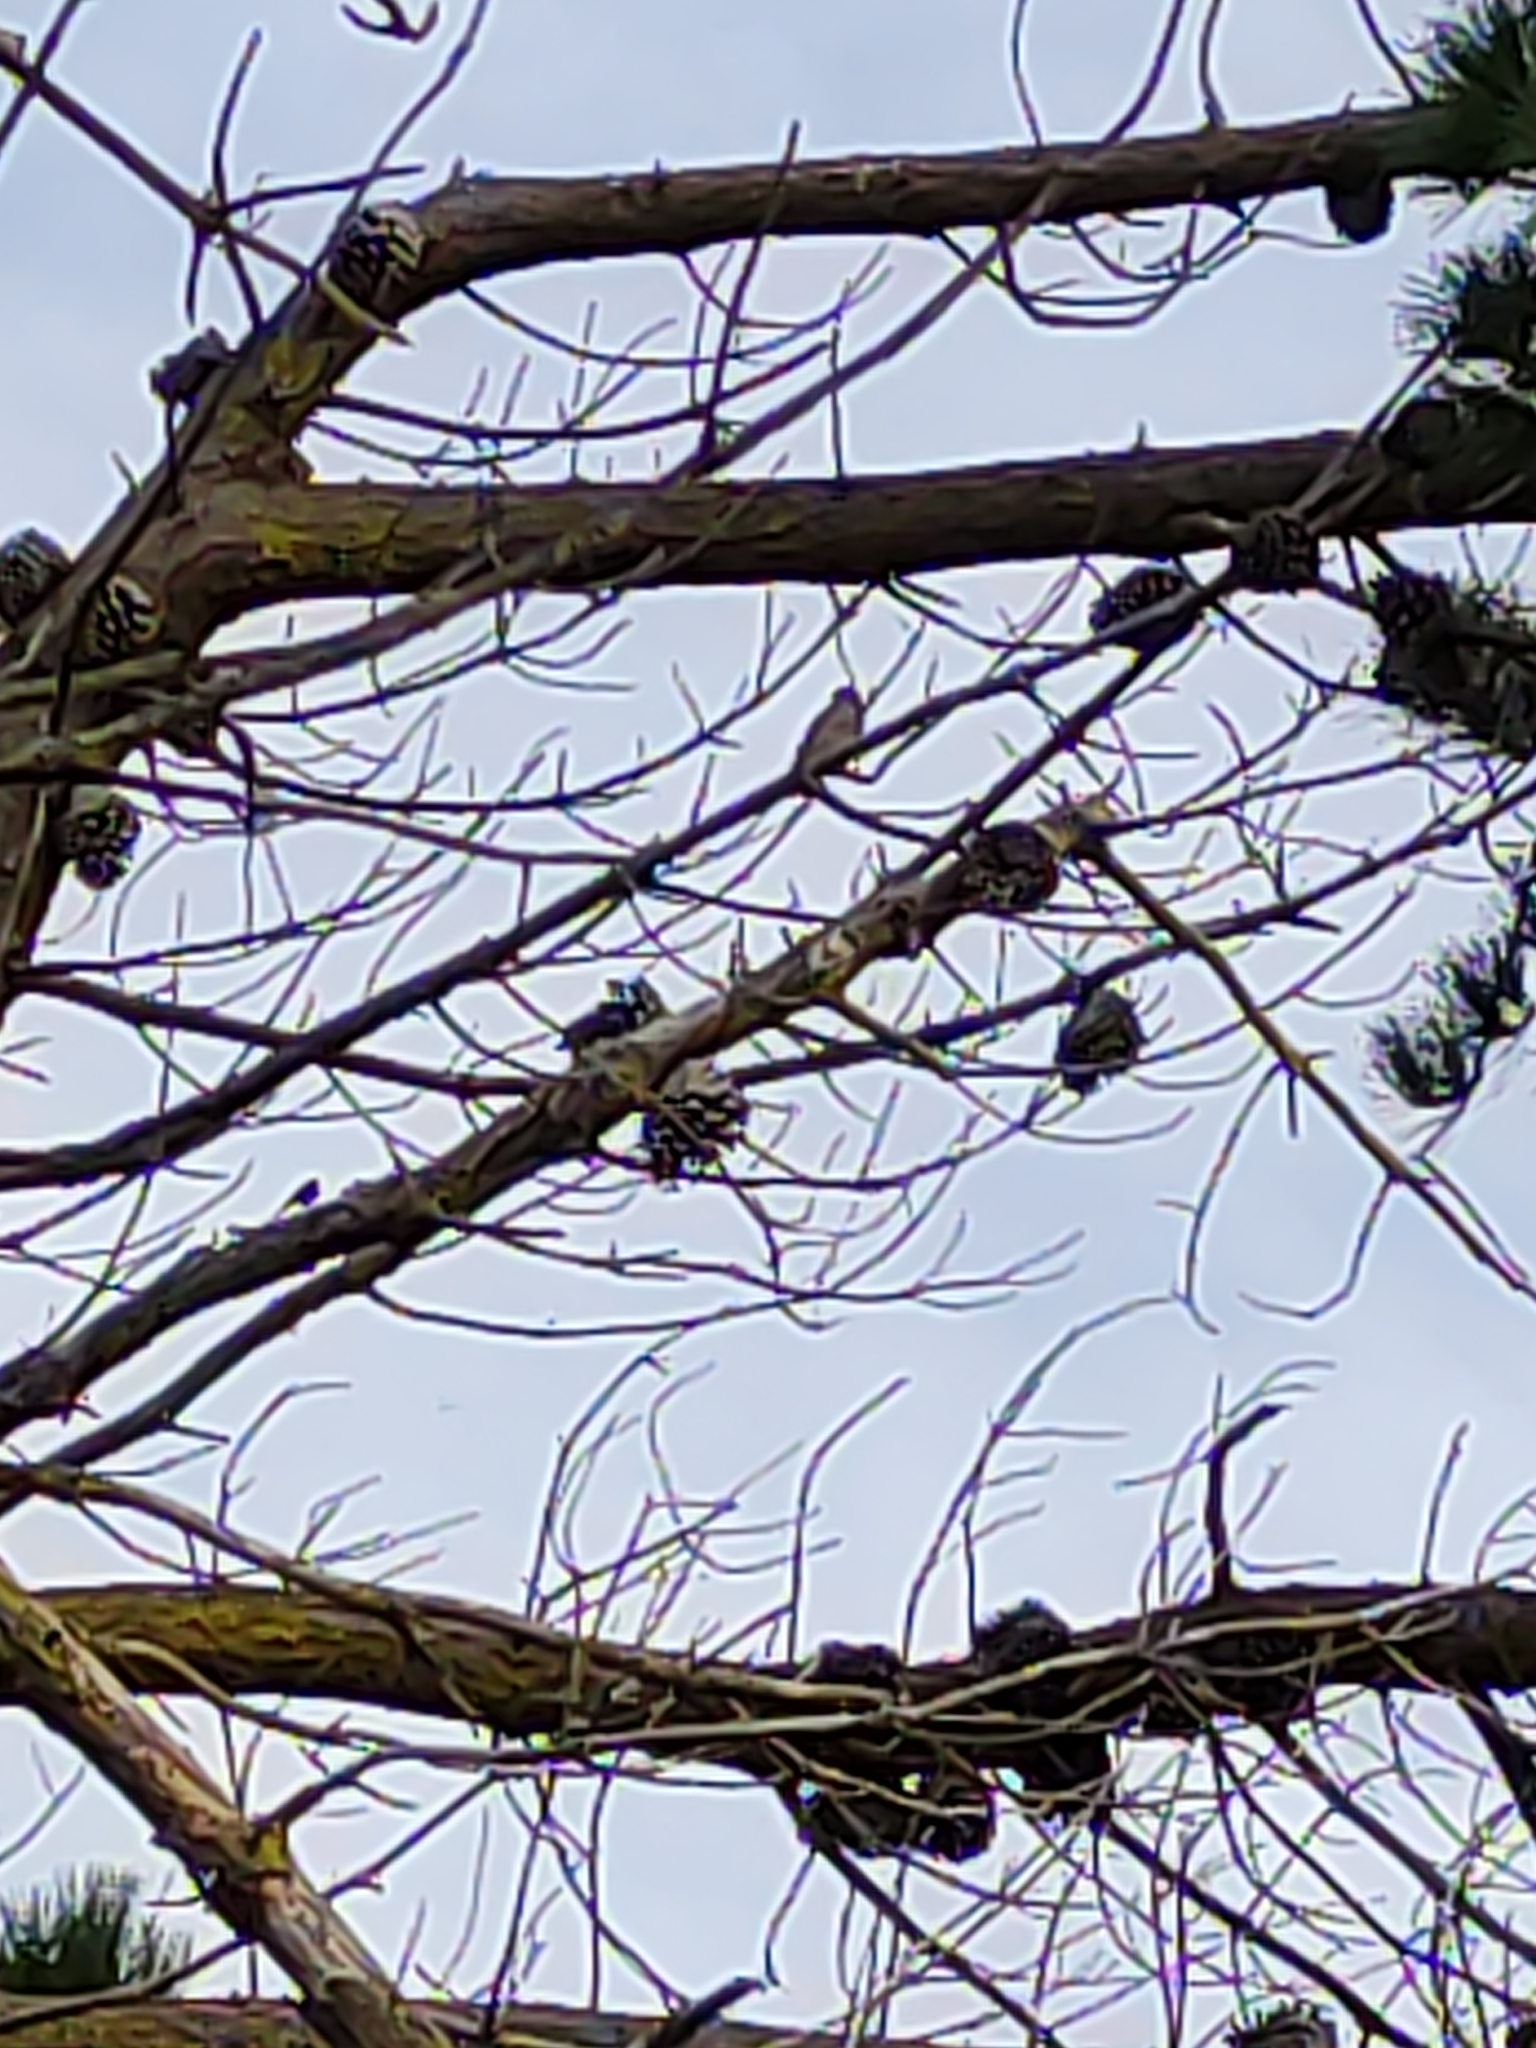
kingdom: Animalia
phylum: Chordata
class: Aves
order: Passeriformes
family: Passeridae
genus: Passer
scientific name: Passer domesticus
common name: House sparrow
